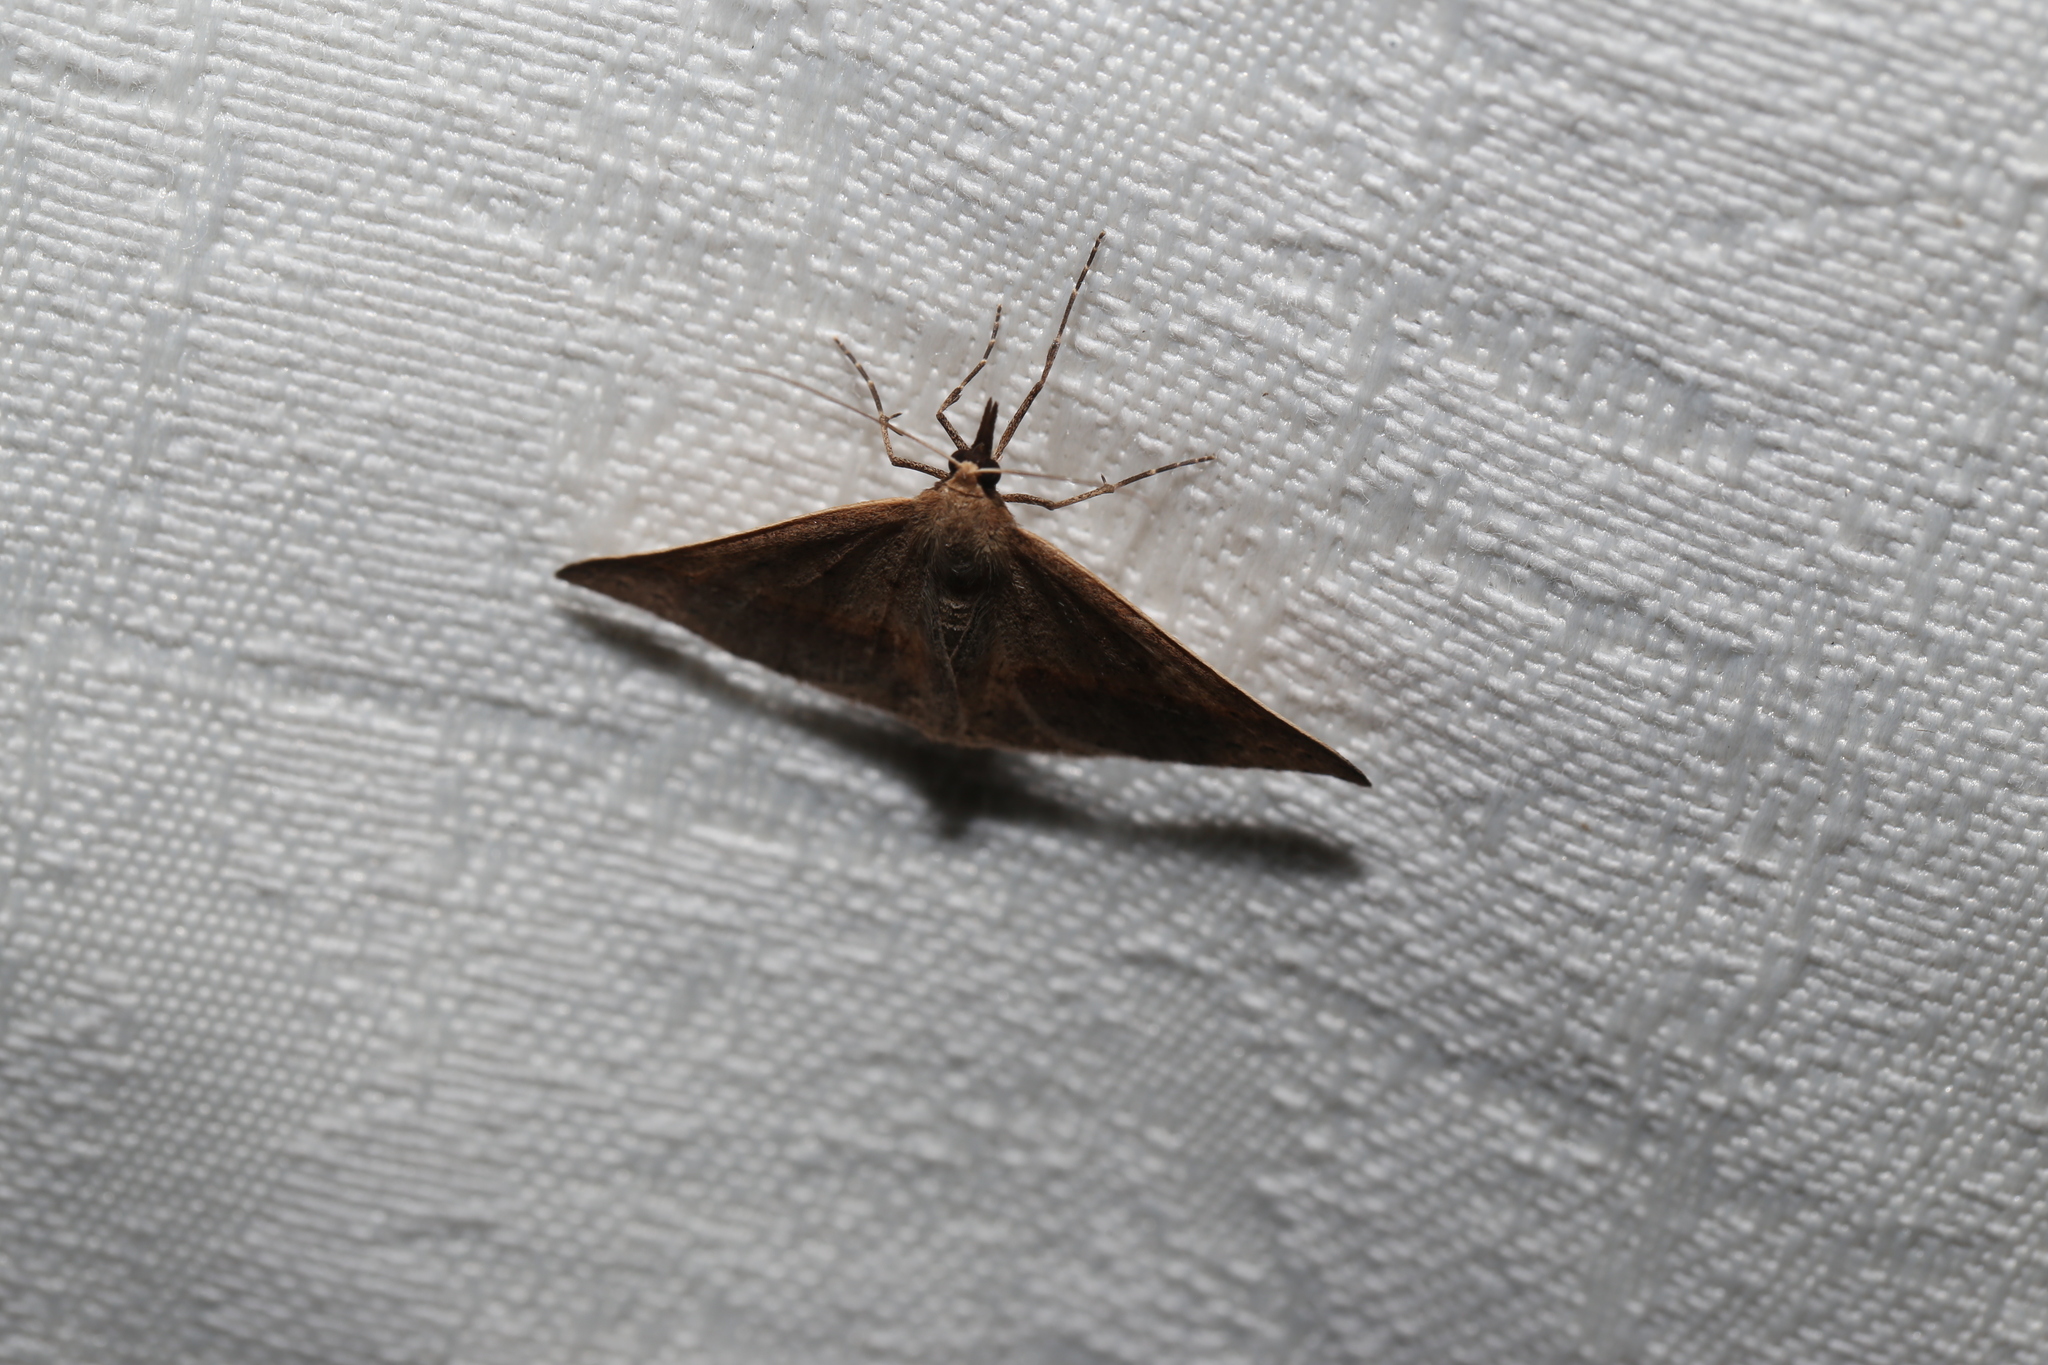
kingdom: Animalia
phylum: Arthropoda
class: Insecta
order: Lepidoptera
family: Geometridae
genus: Epidesmia
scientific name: Epidesmia tryxaria
